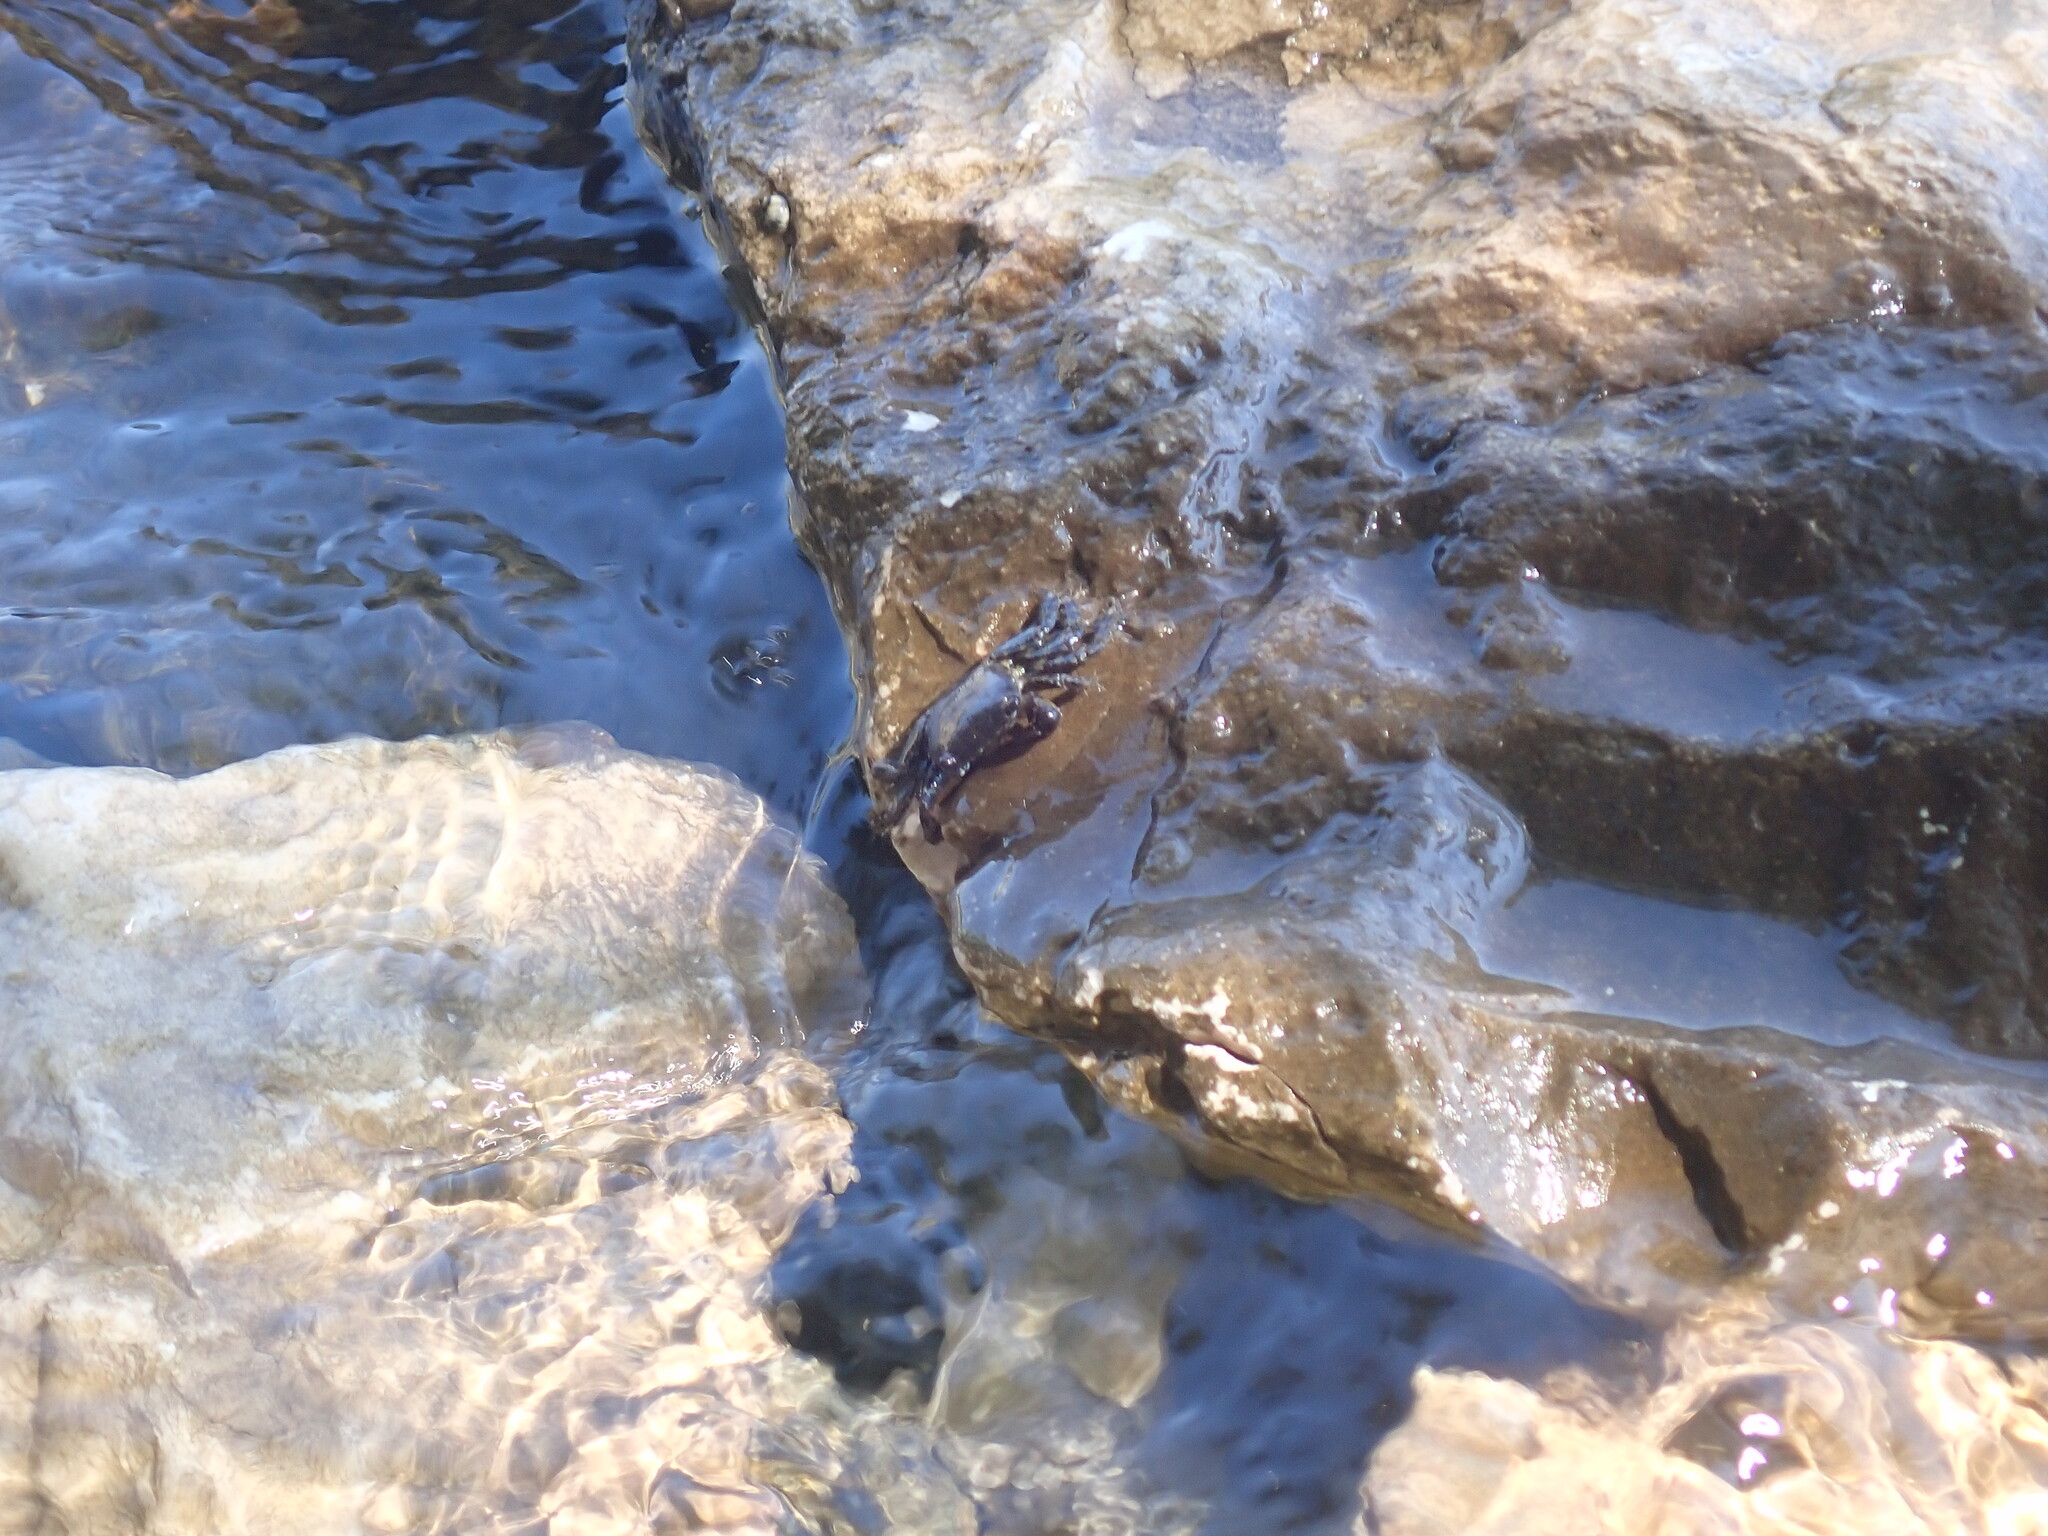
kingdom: Animalia
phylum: Arthropoda
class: Malacostraca
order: Decapoda
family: Grapsidae
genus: Pachygrapsus
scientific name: Pachygrapsus marmoratus
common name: Marbled rock crab
